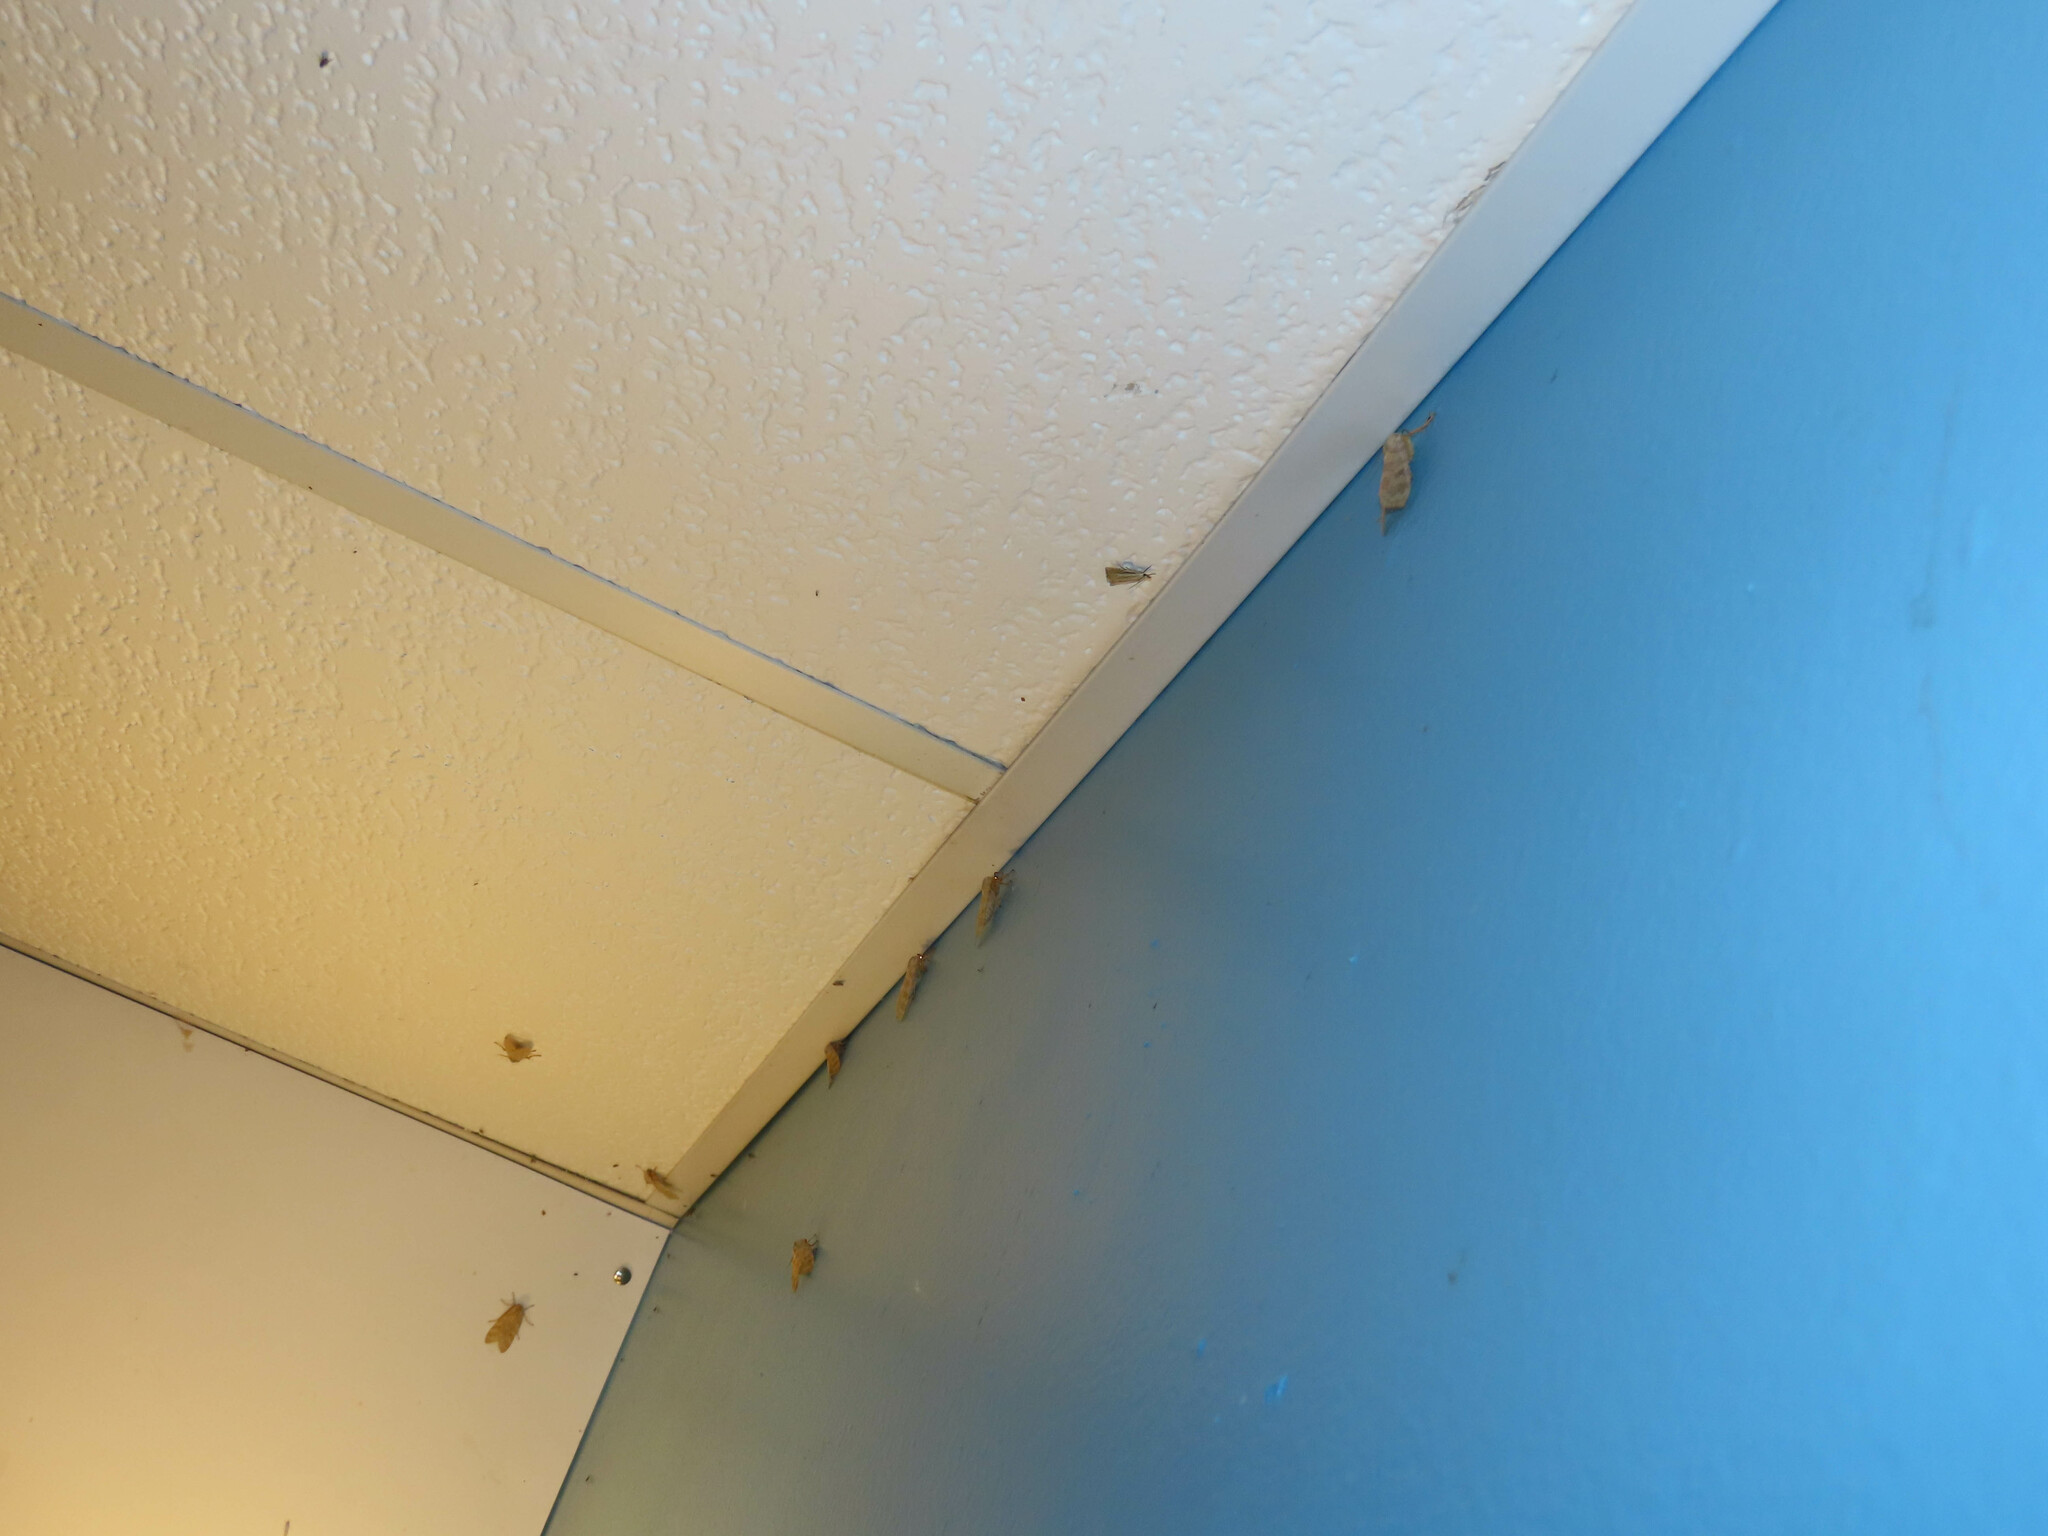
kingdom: Animalia
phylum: Arthropoda
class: Insecta
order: Lepidoptera
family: Erebidae
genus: Halysidota
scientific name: Halysidota
